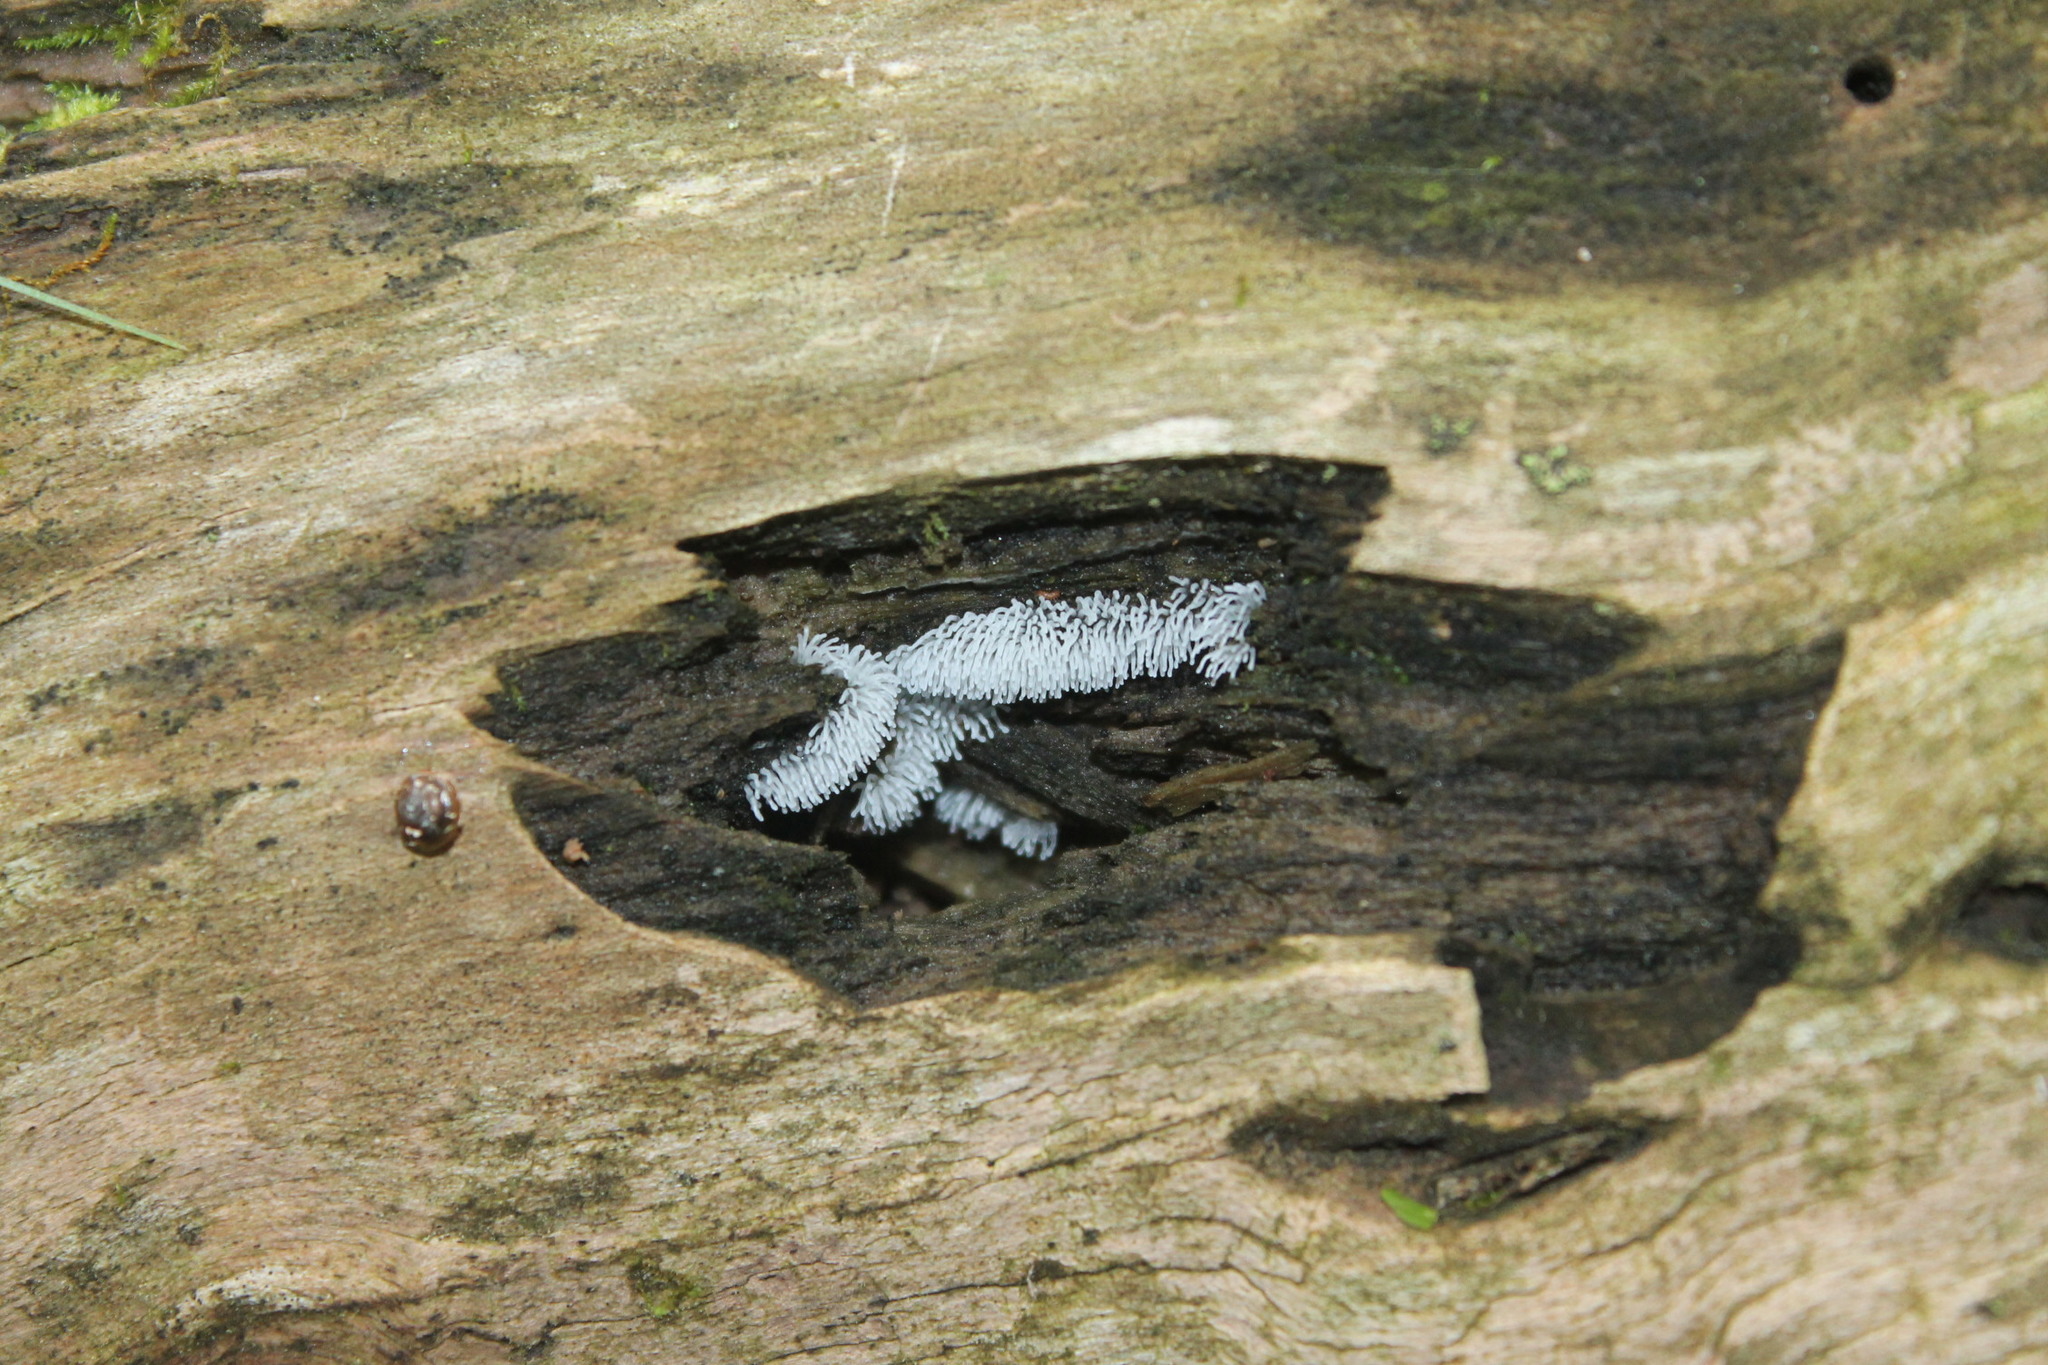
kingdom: Protozoa
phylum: Mycetozoa
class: Protosteliomycetes
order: Ceratiomyxales
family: Ceratiomyxaceae
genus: Ceratiomyxa
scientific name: Ceratiomyxa fruticulosa
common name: Honeycomb coral slime mold
